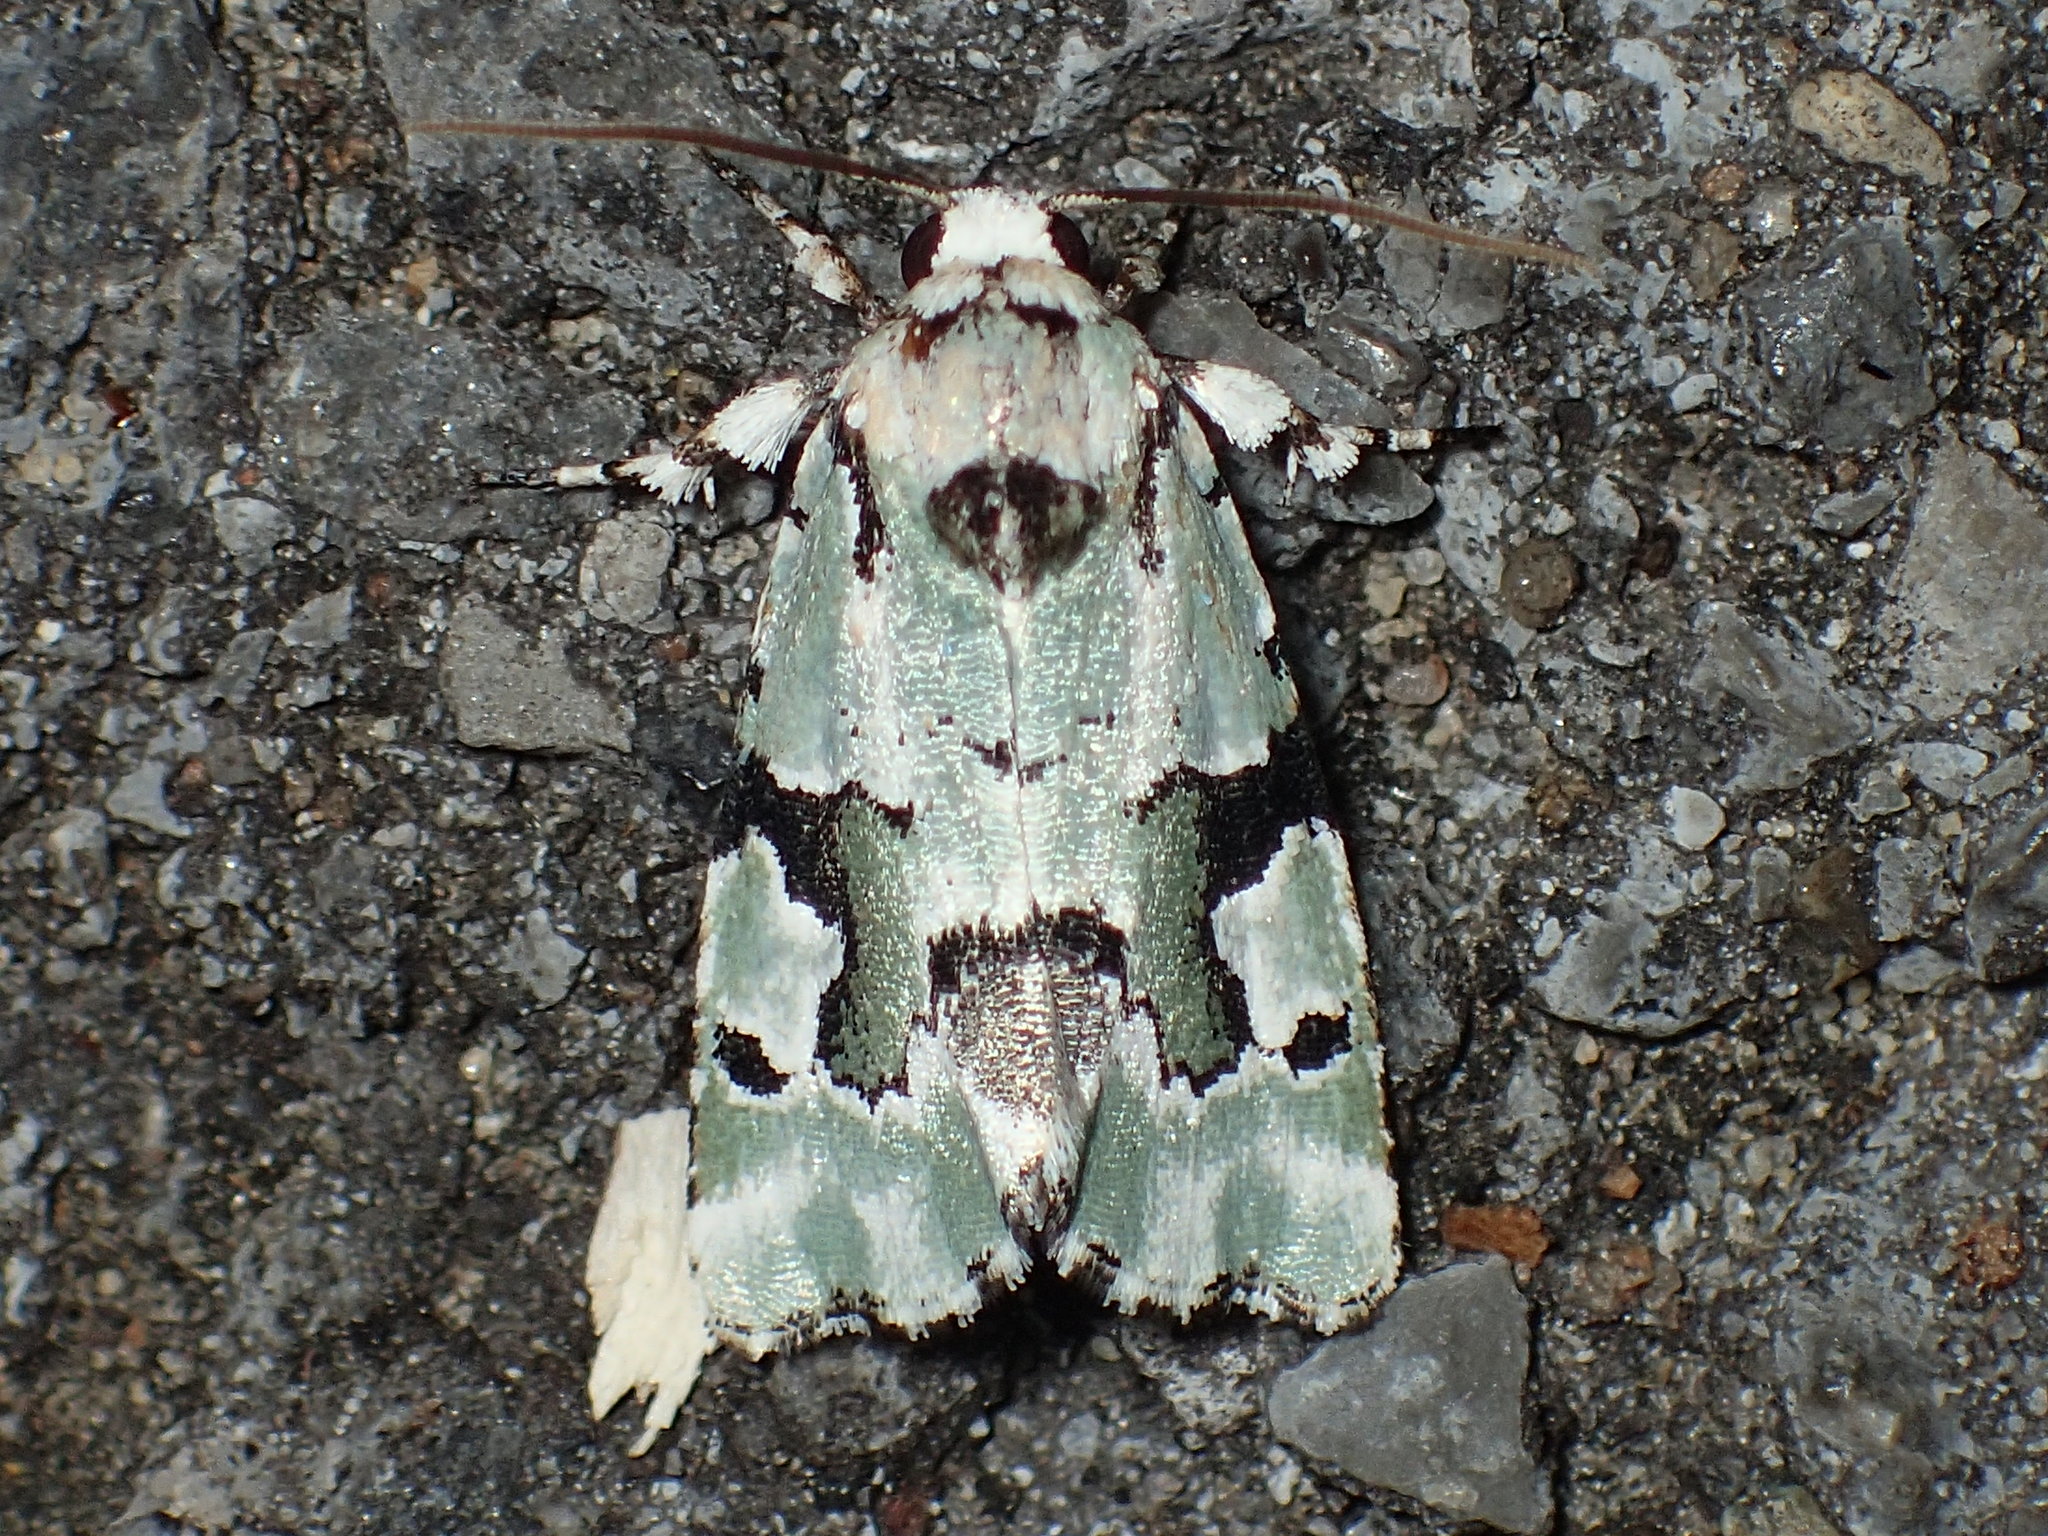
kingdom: Animalia
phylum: Arthropoda
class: Insecta
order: Lepidoptera
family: Noctuidae
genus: Emarginea
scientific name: Emarginea percara
